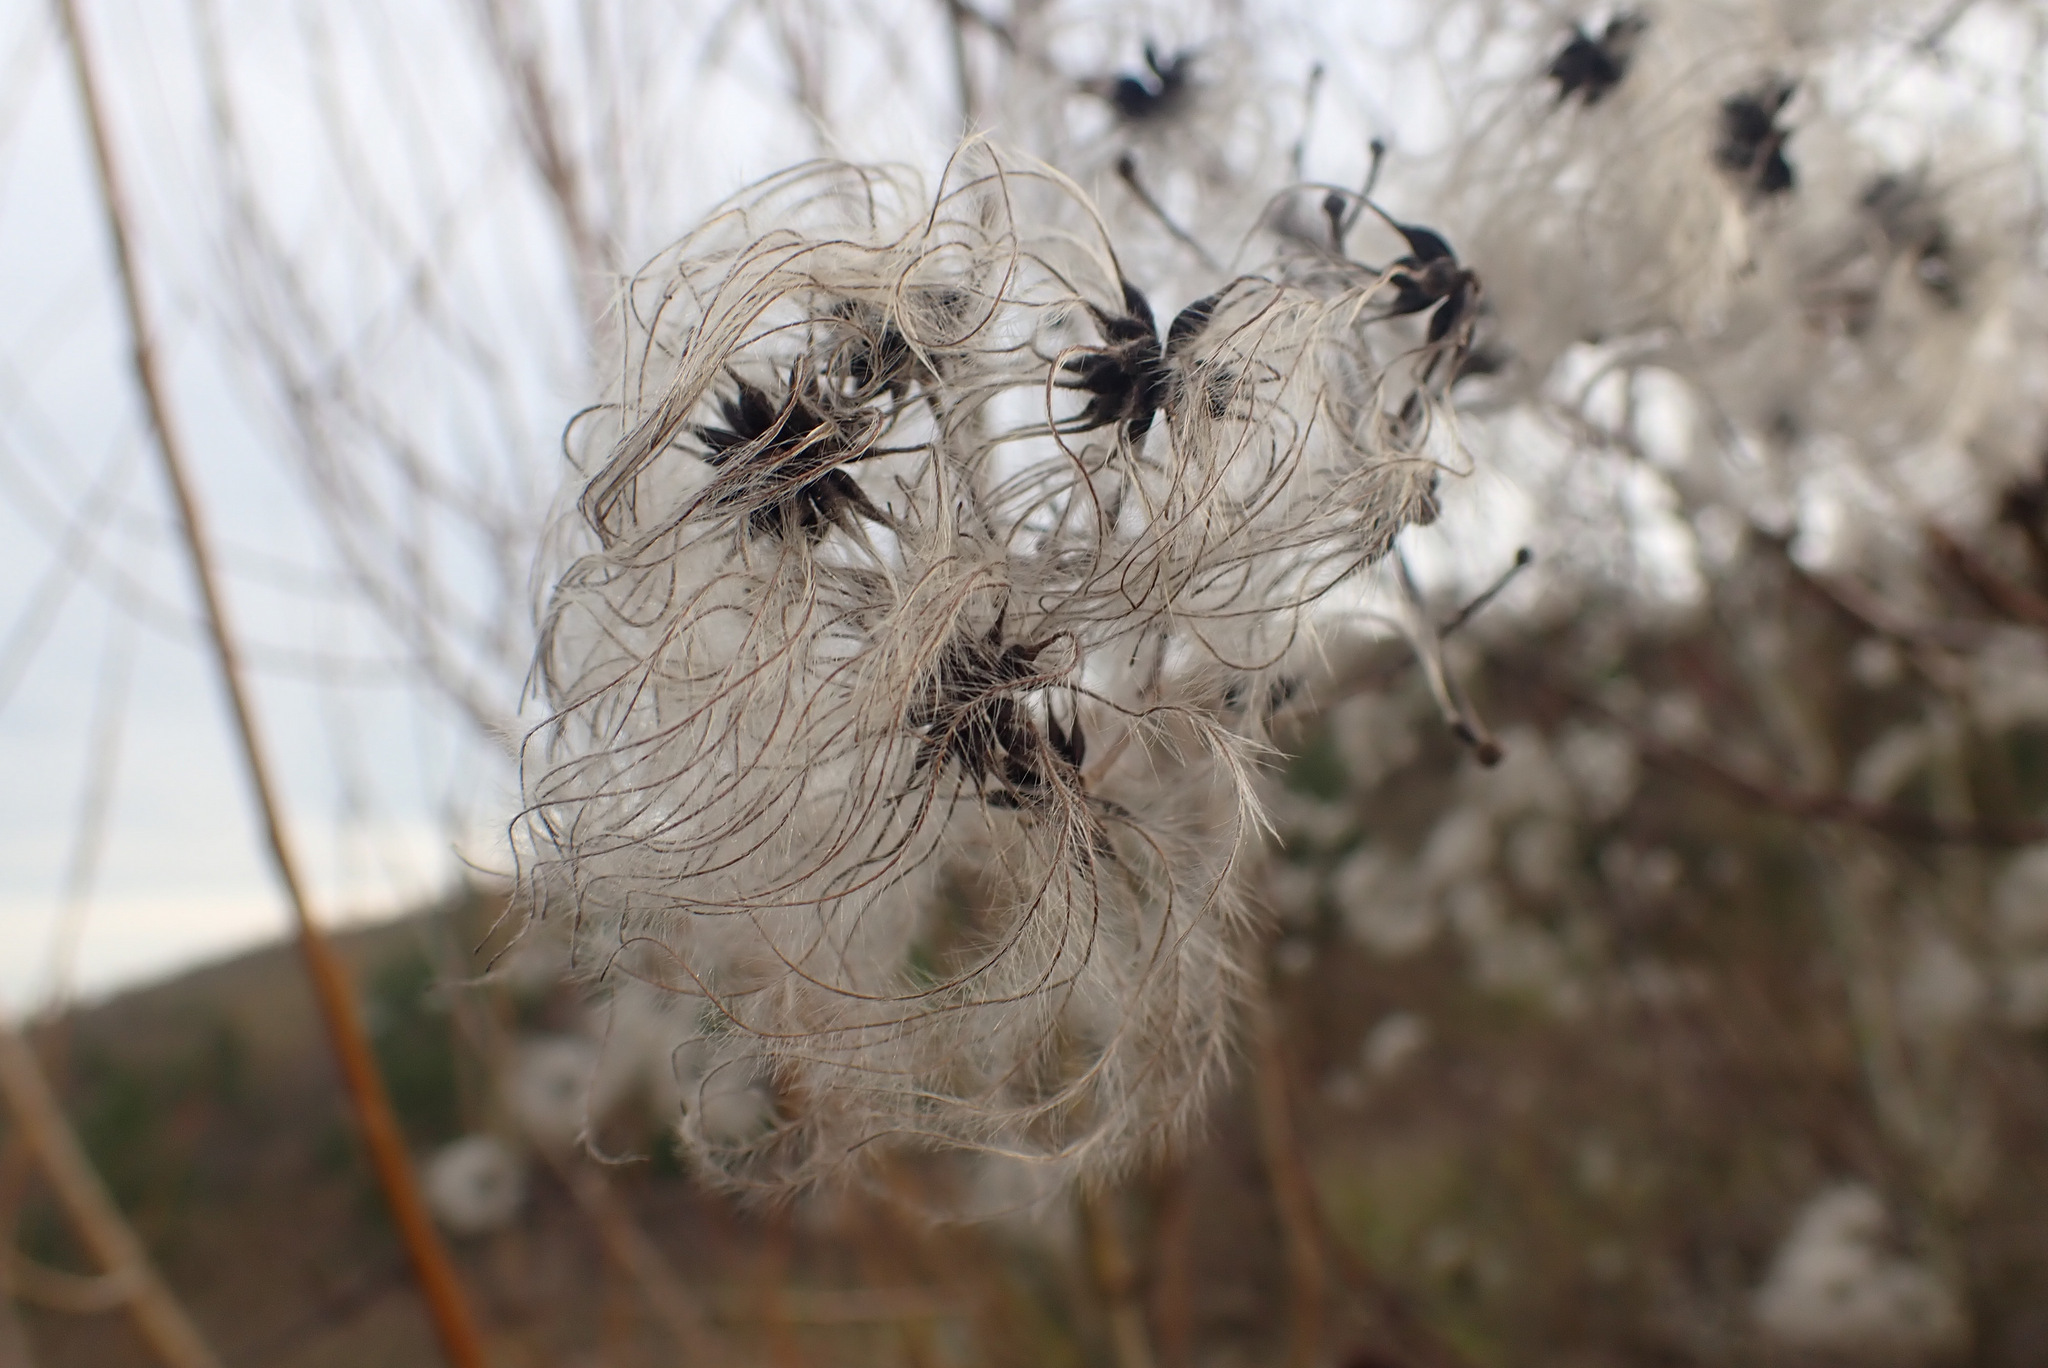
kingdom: Plantae
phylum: Tracheophyta
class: Magnoliopsida
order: Ranunculales
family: Ranunculaceae
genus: Clematis
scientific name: Clematis vitalba
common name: Evergreen clematis
